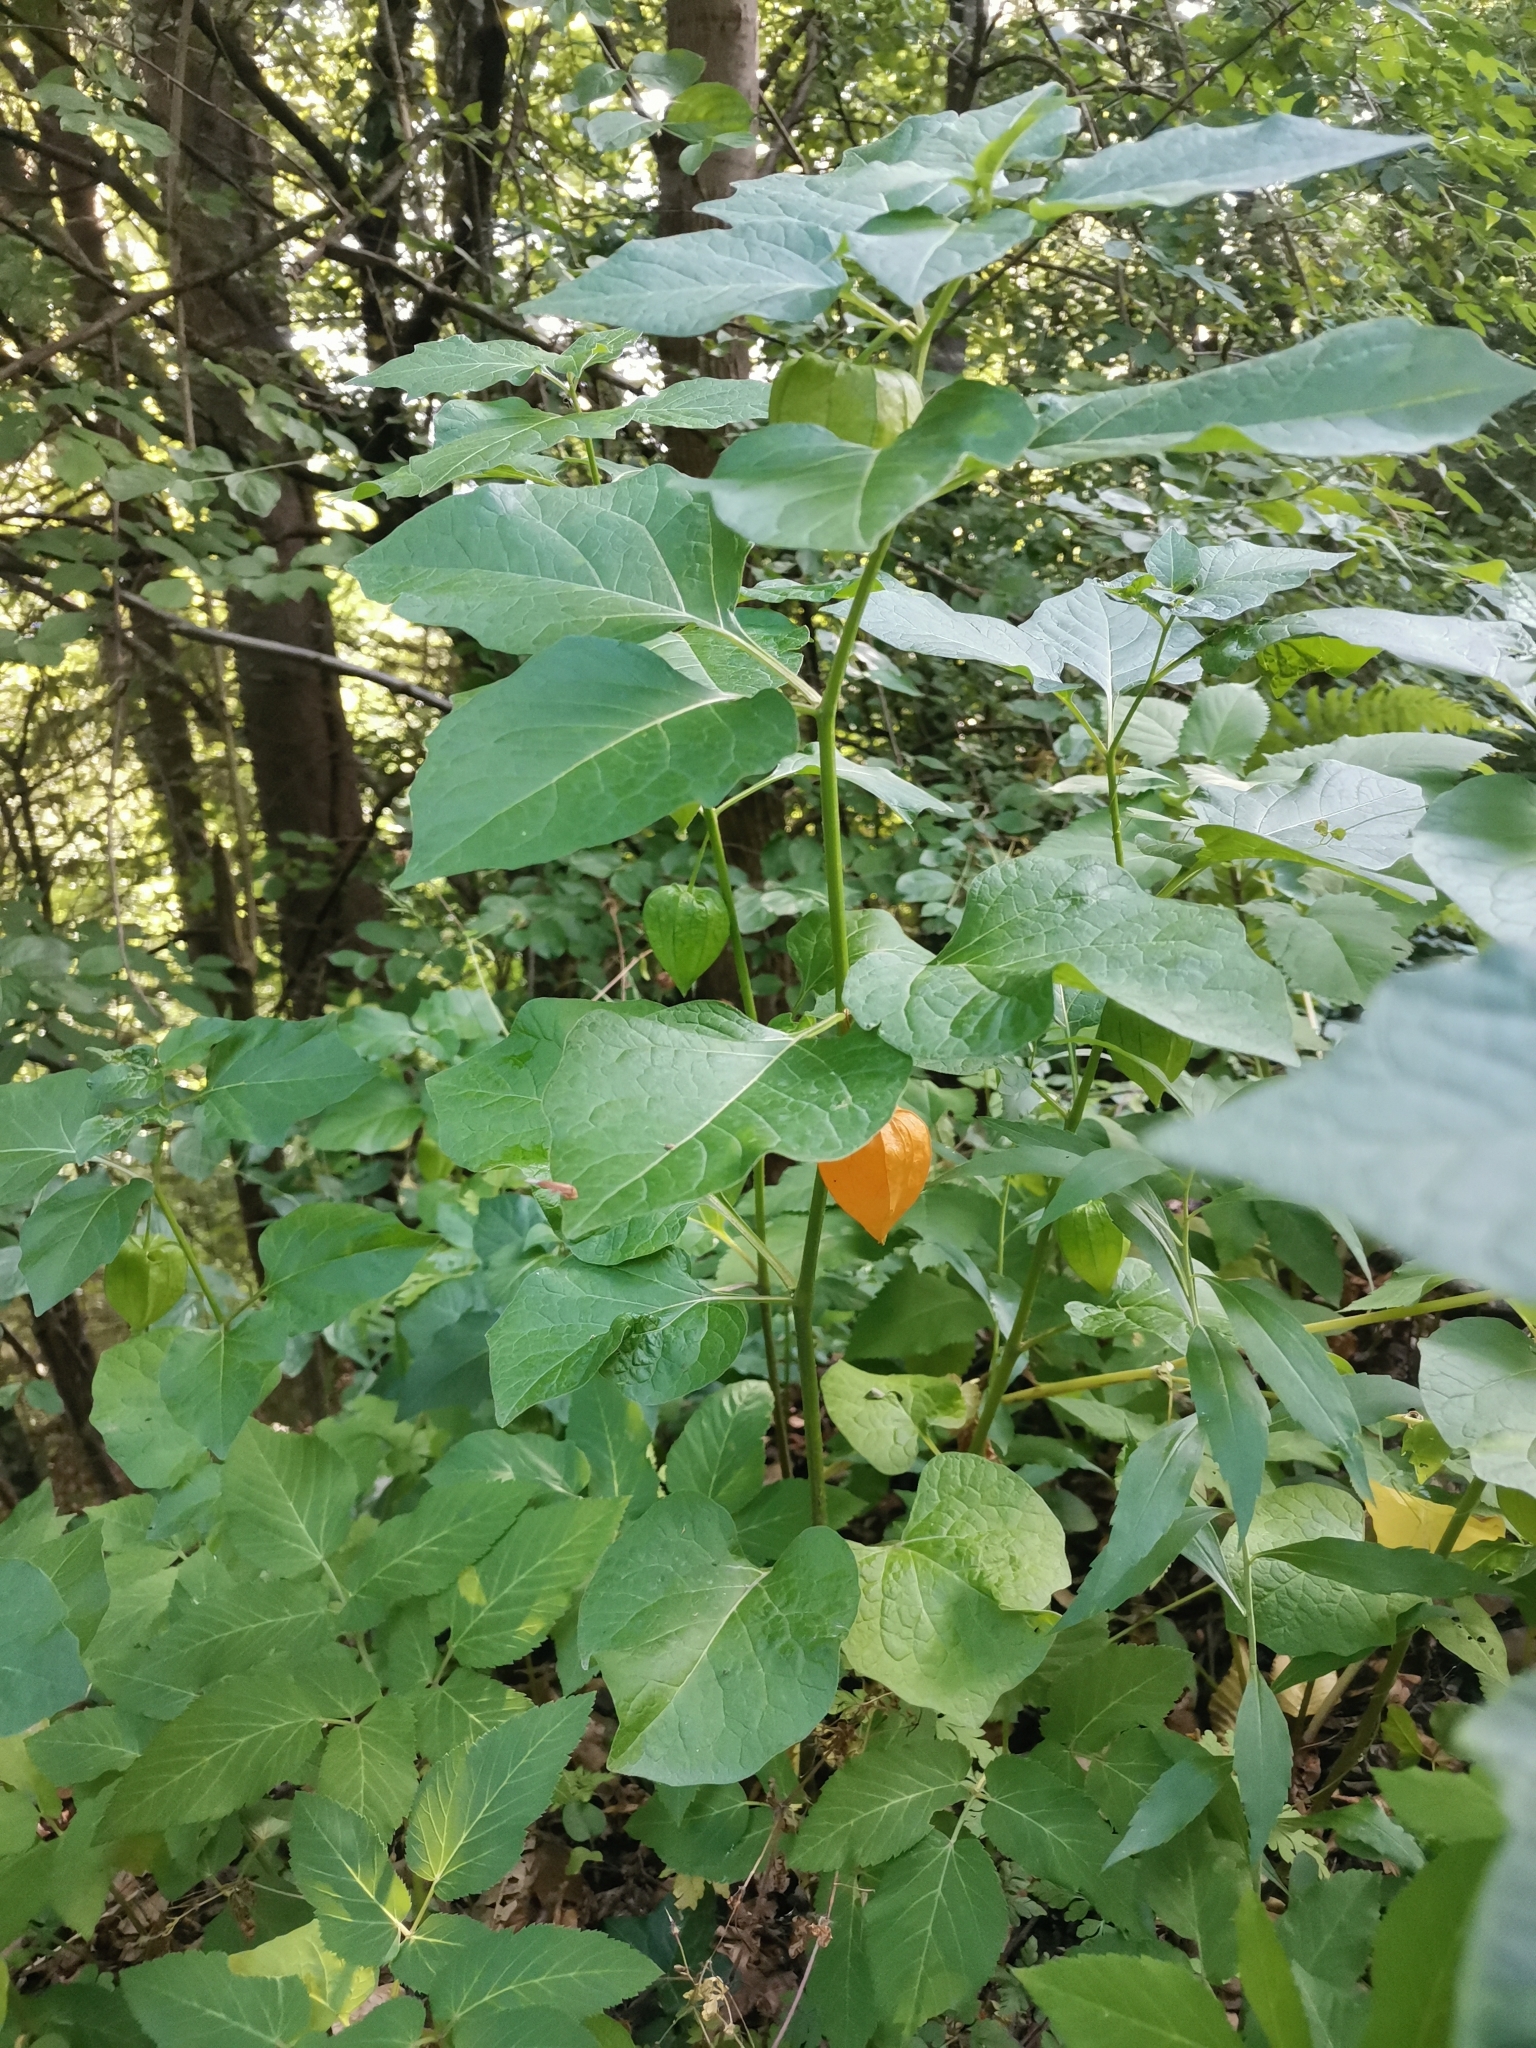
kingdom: Plantae
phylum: Tracheophyta
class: Magnoliopsida
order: Solanales
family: Solanaceae
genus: Alkekengi
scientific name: Alkekengi officinarum
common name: Japanese-lantern
